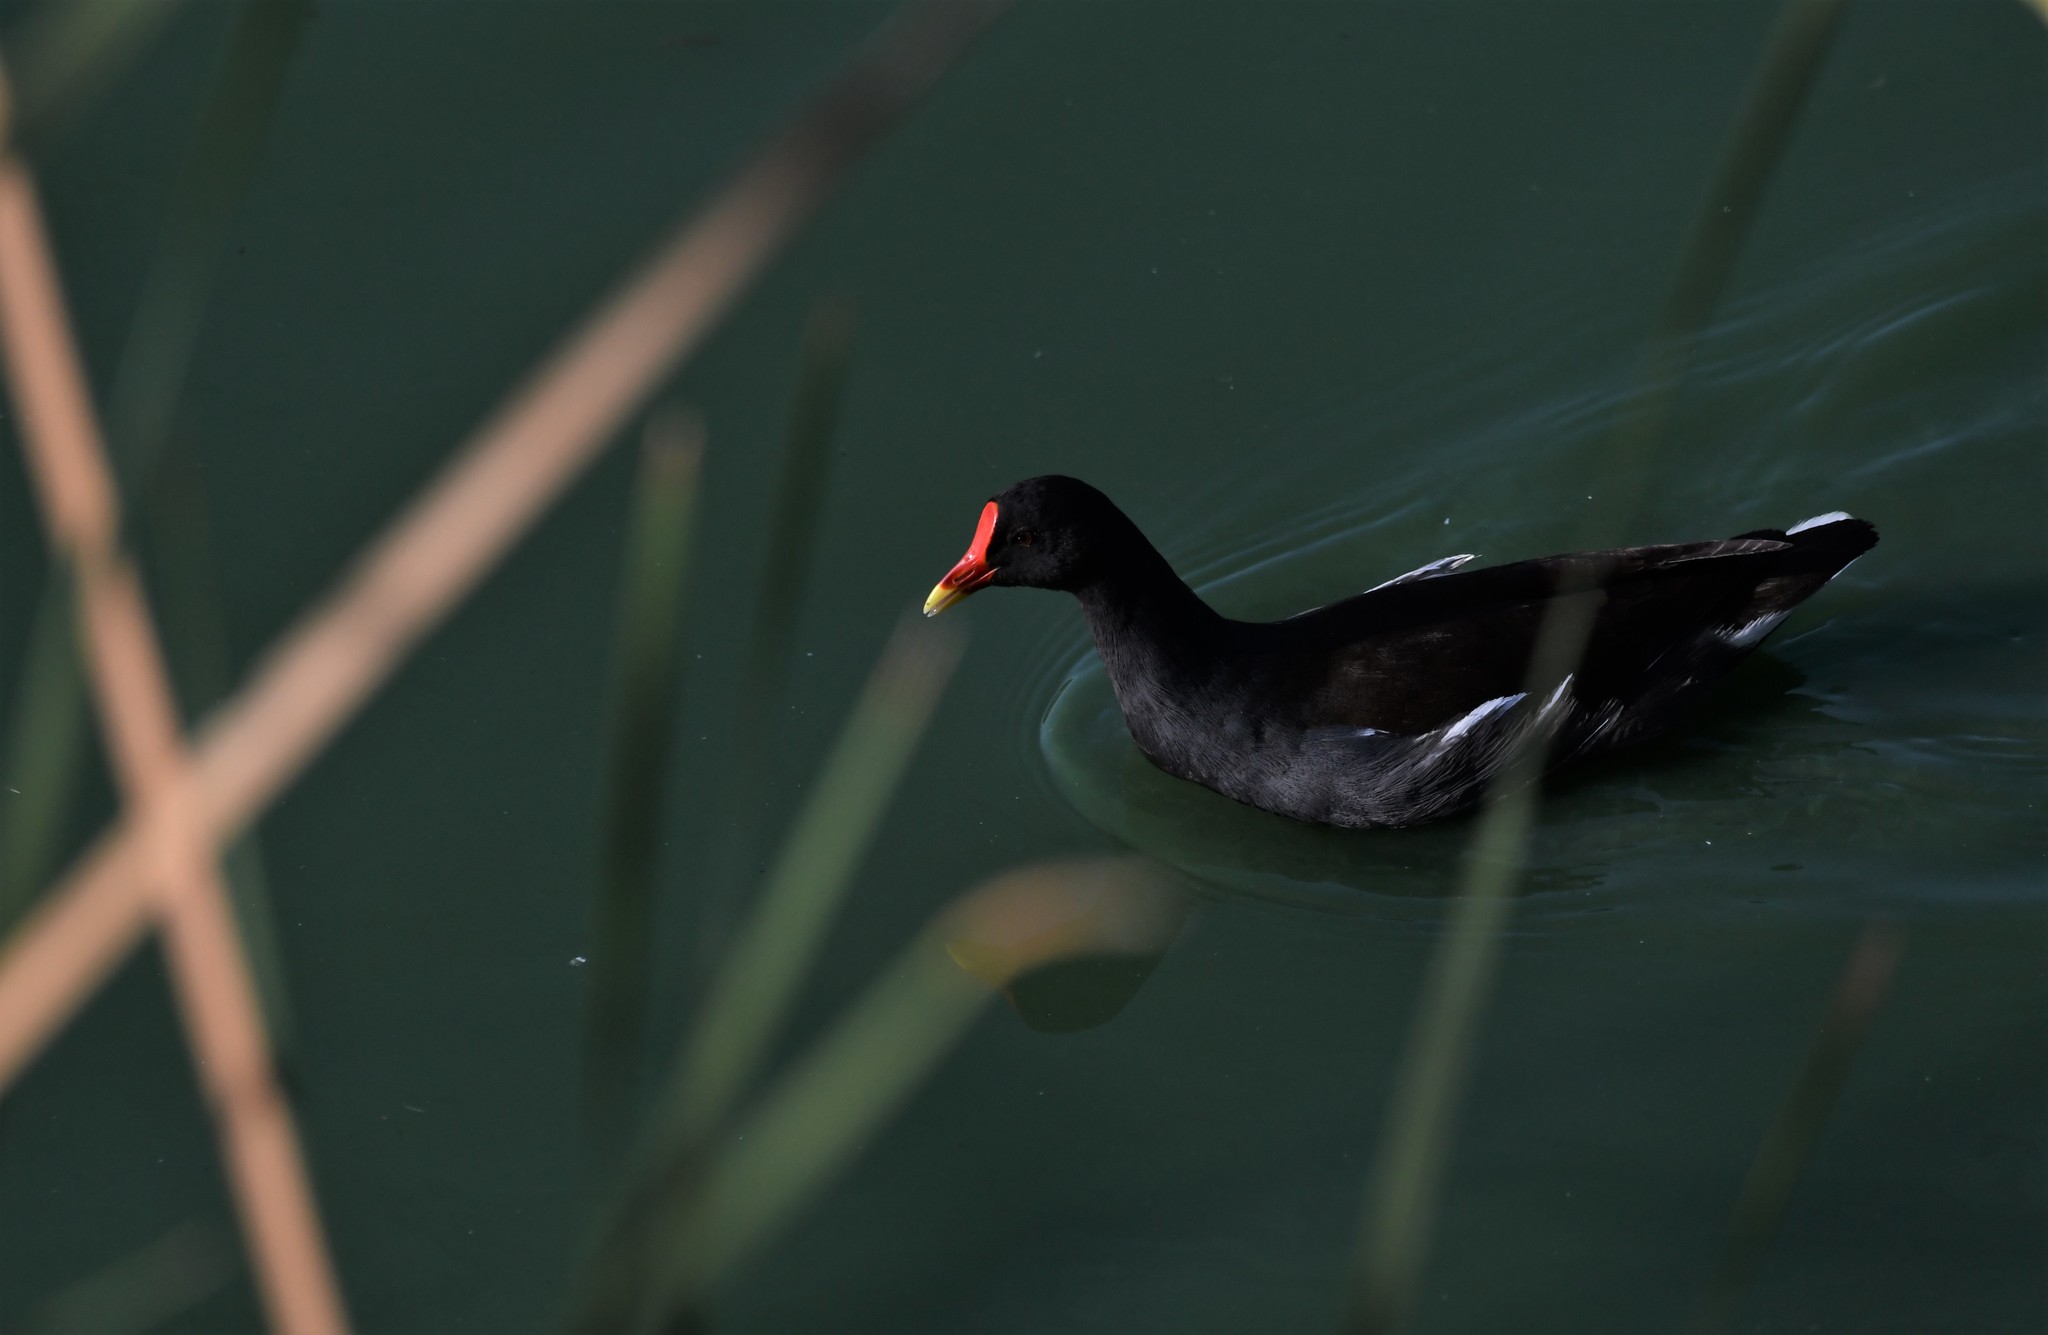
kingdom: Animalia
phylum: Chordata
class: Aves
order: Gruiformes
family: Rallidae
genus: Gallinula
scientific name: Gallinula chloropus
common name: Common moorhen
